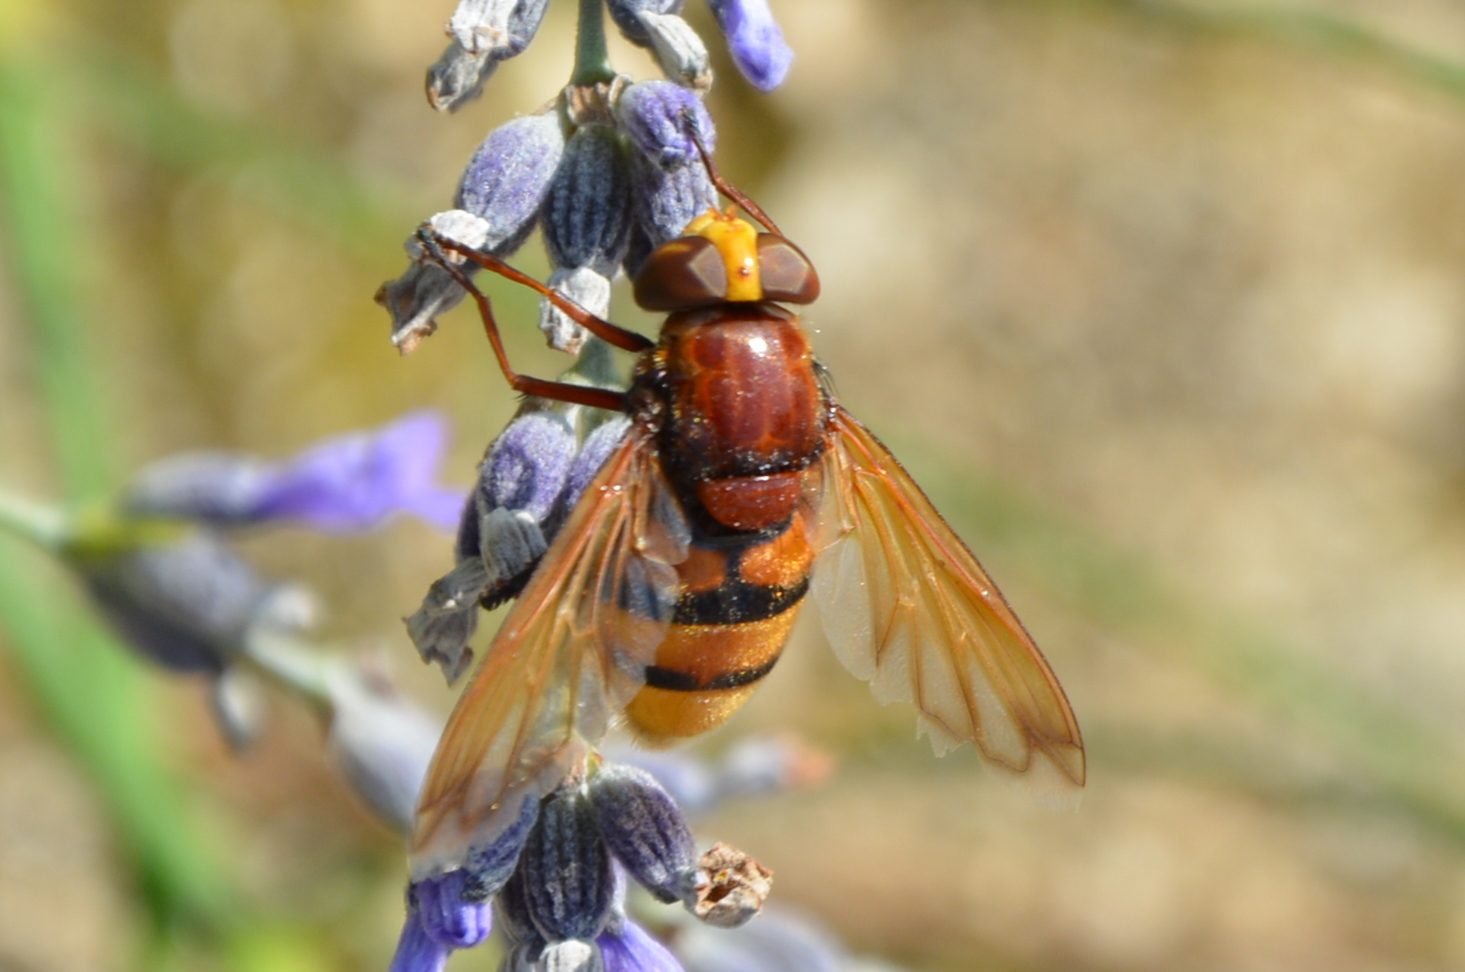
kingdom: Animalia
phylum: Arthropoda
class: Insecta
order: Diptera
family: Syrphidae
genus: Volucella
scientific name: Volucella zonaria
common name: Hornet hoverfly
